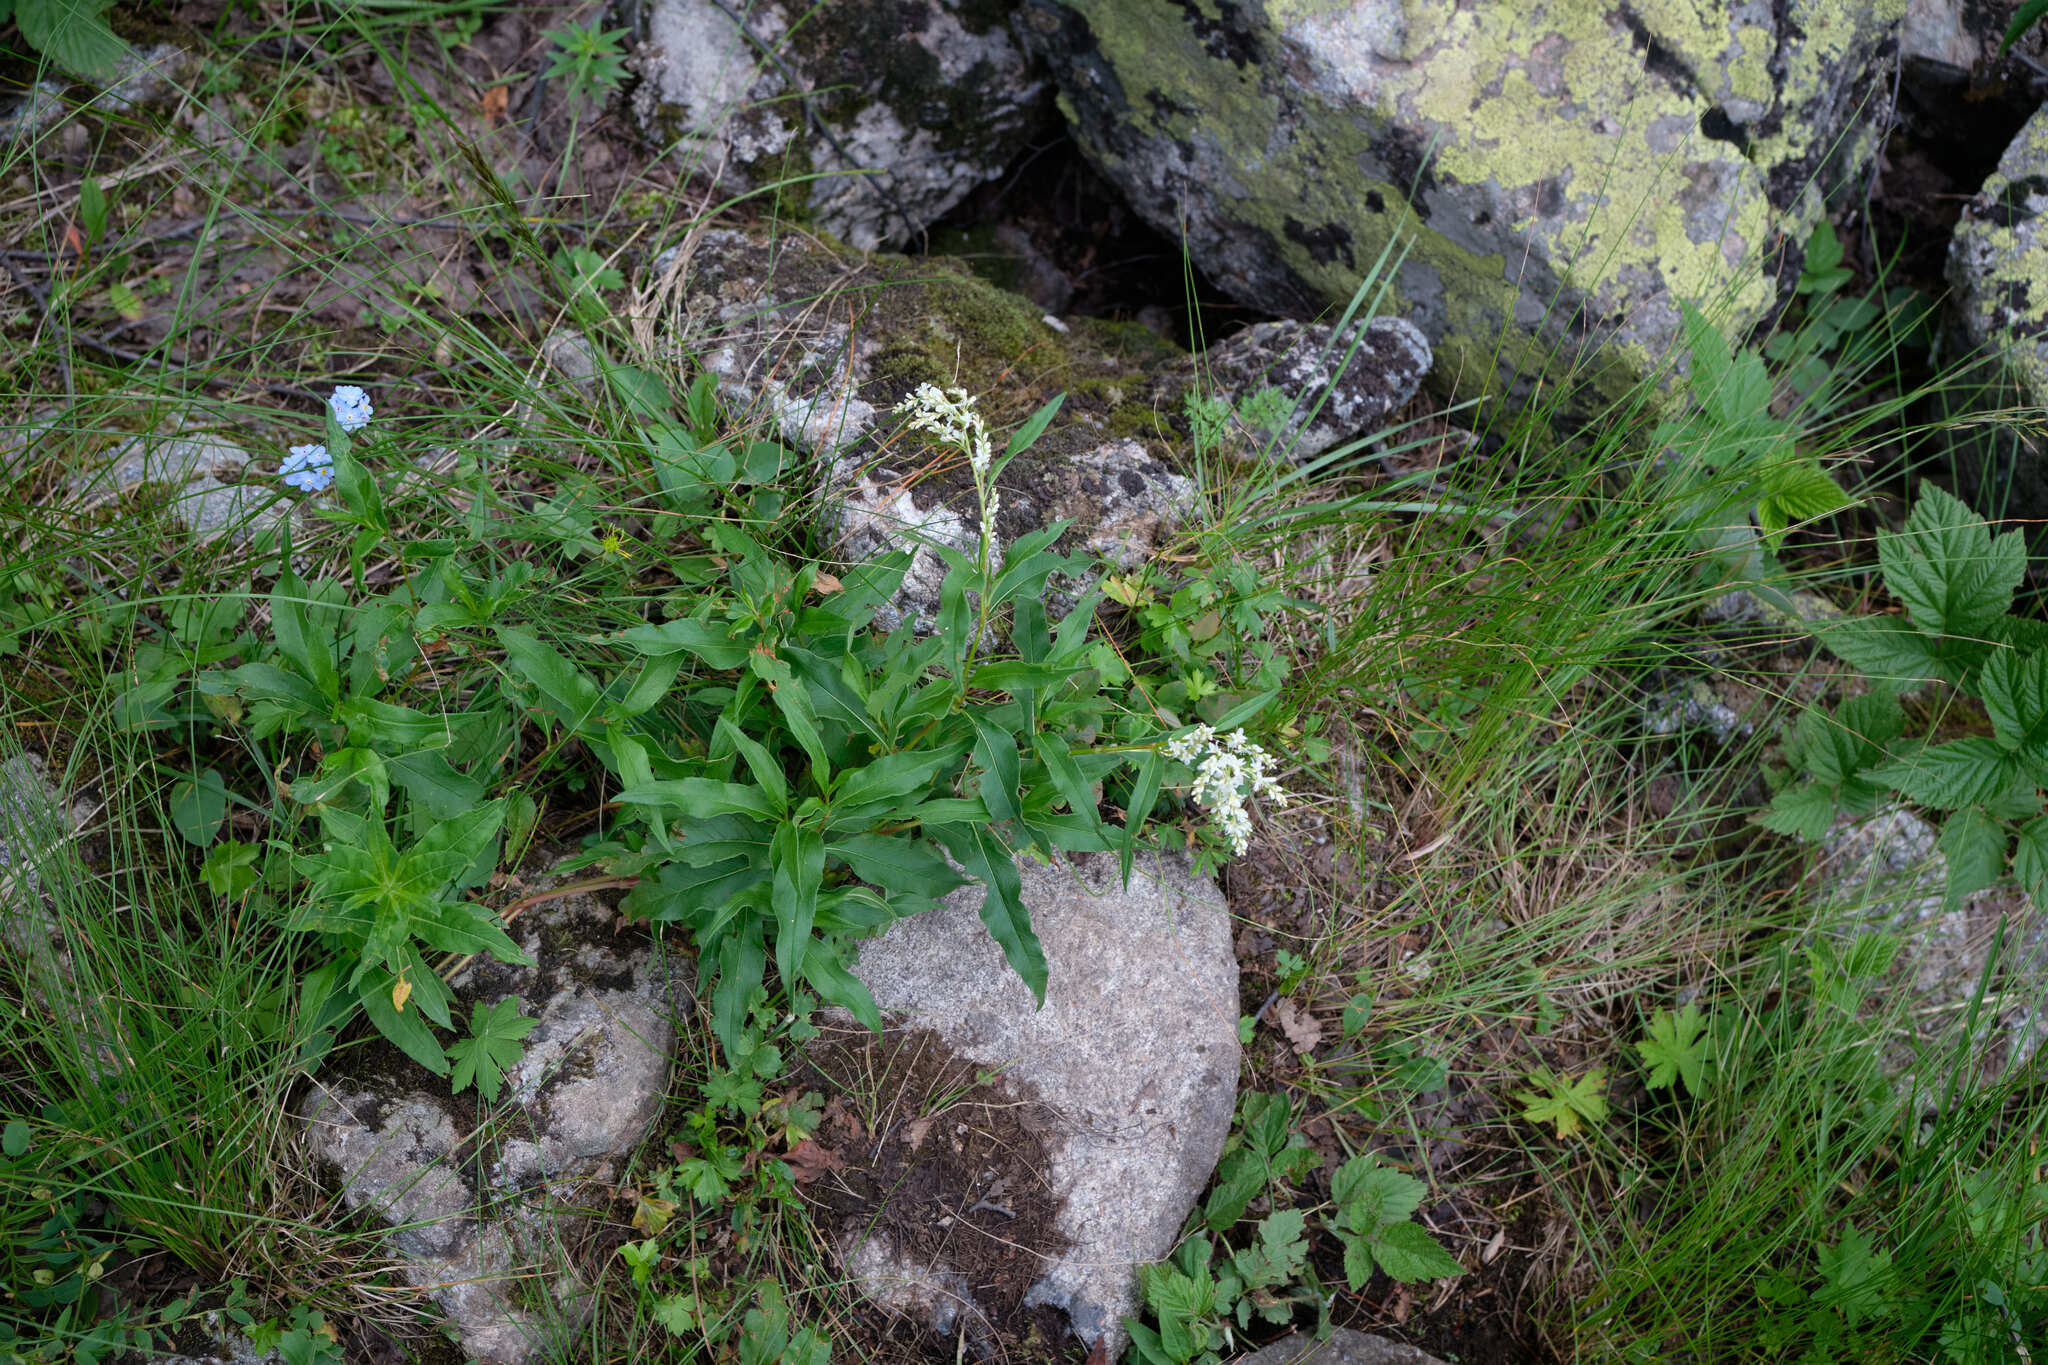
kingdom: Plantae
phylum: Tracheophyta
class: Magnoliopsida
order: Caryophyllales
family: Polygonaceae
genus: Koenigia
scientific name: Koenigia alpina
